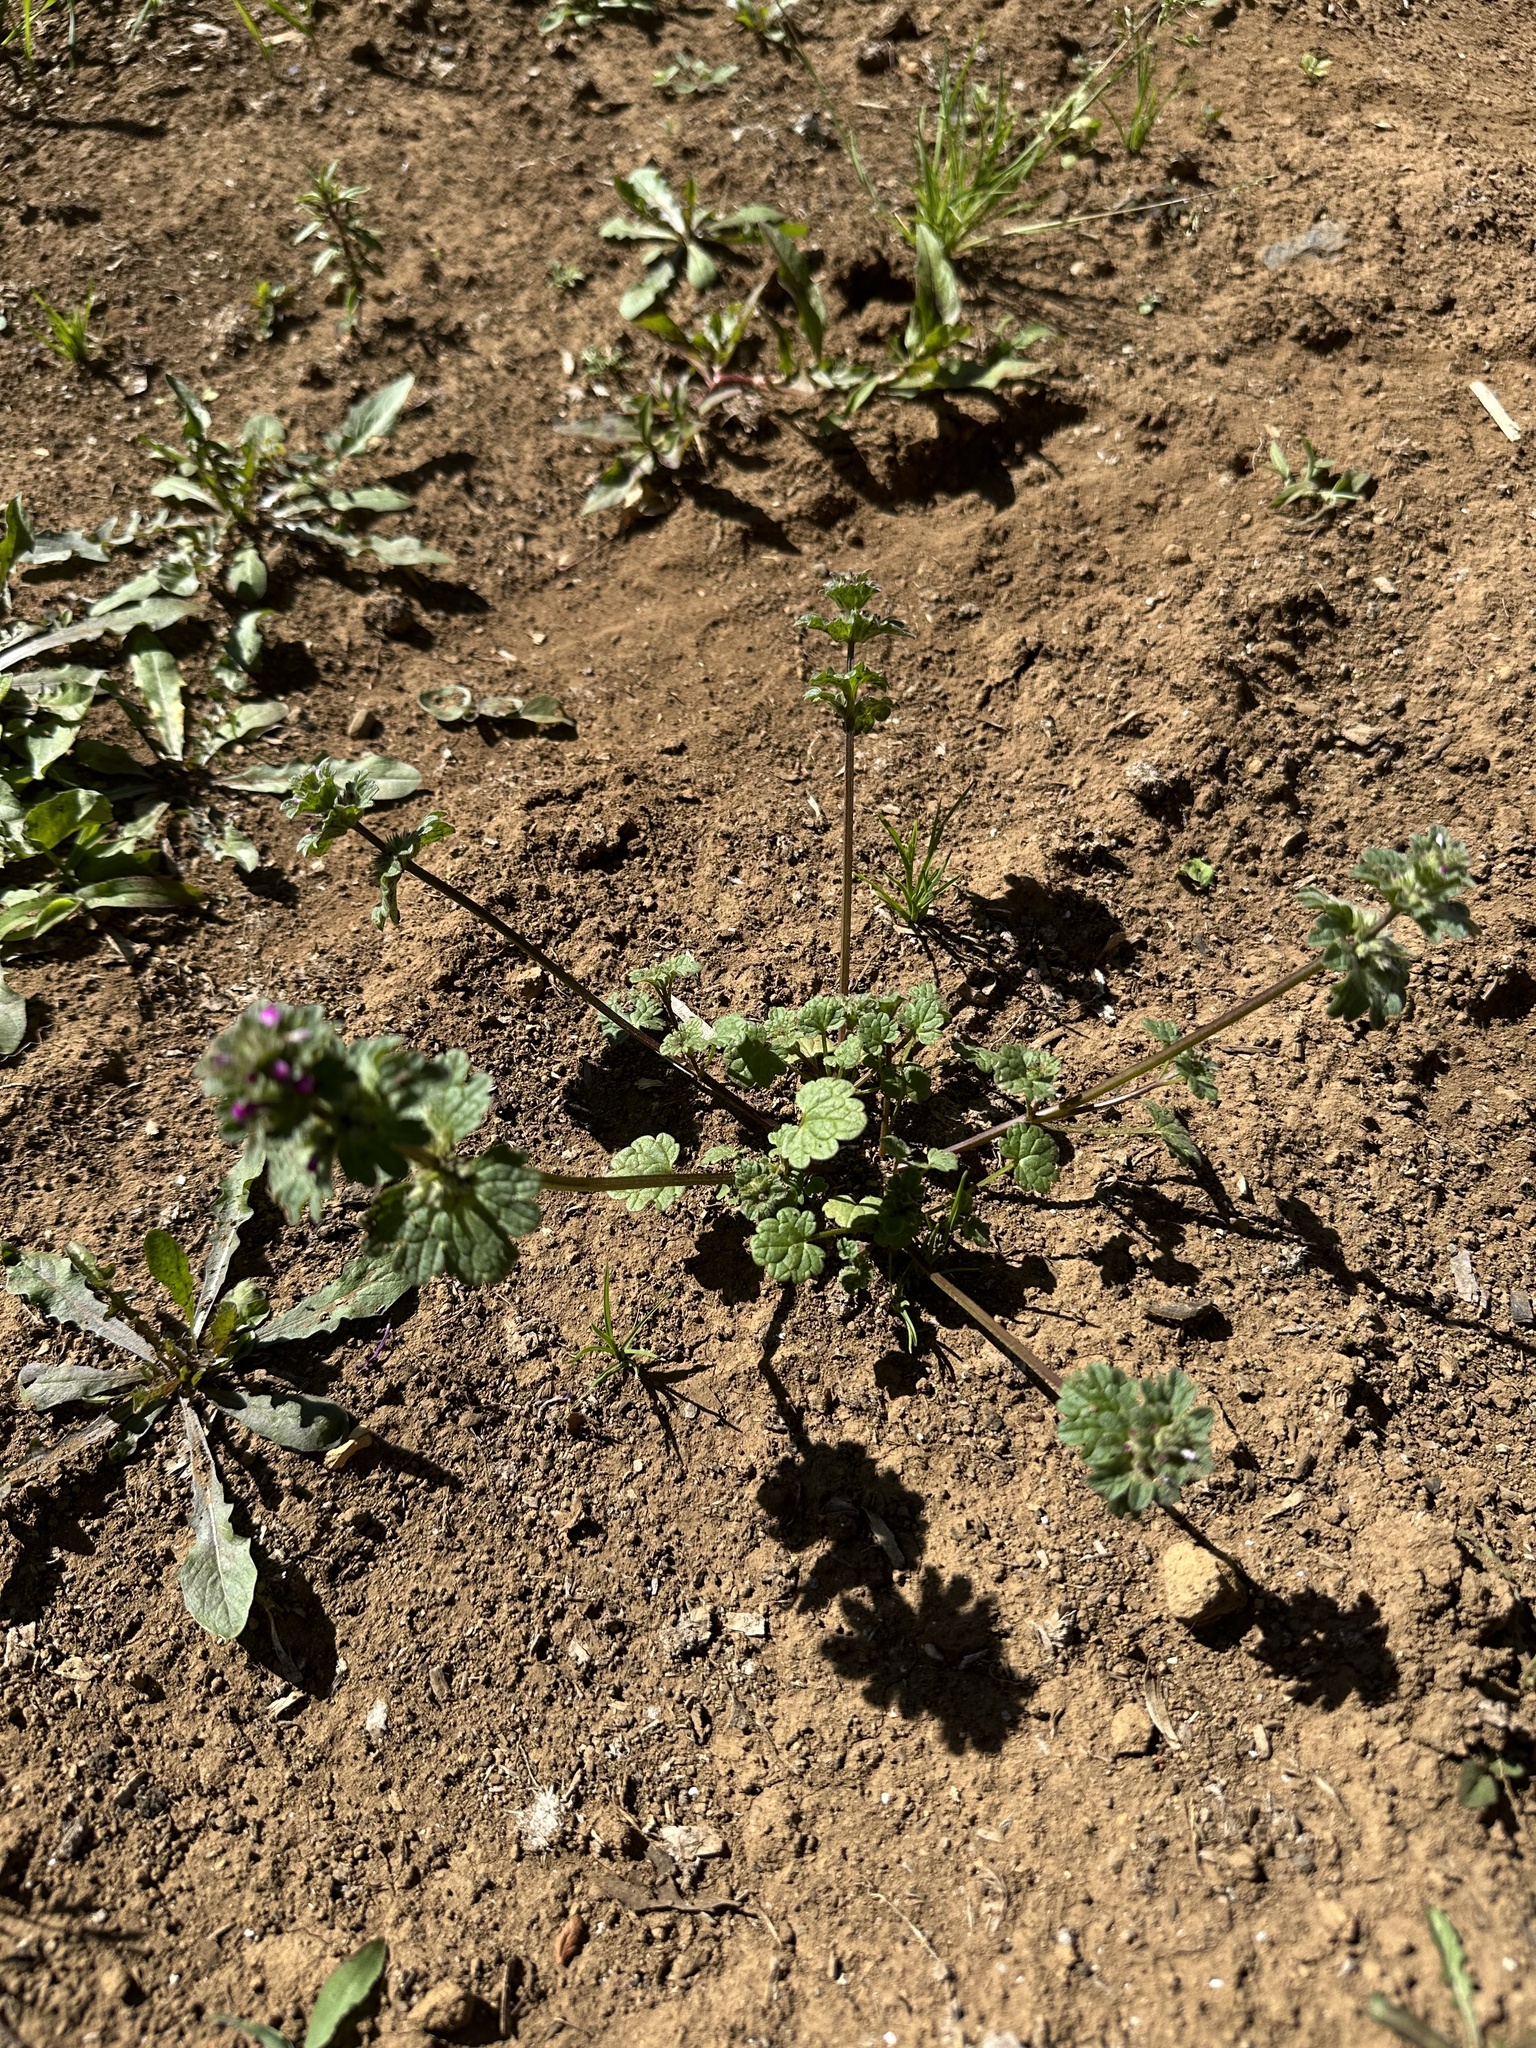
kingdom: Plantae
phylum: Tracheophyta
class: Magnoliopsida
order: Lamiales
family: Lamiaceae
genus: Lamium
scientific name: Lamium amplexicaule
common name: Henbit dead-nettle
